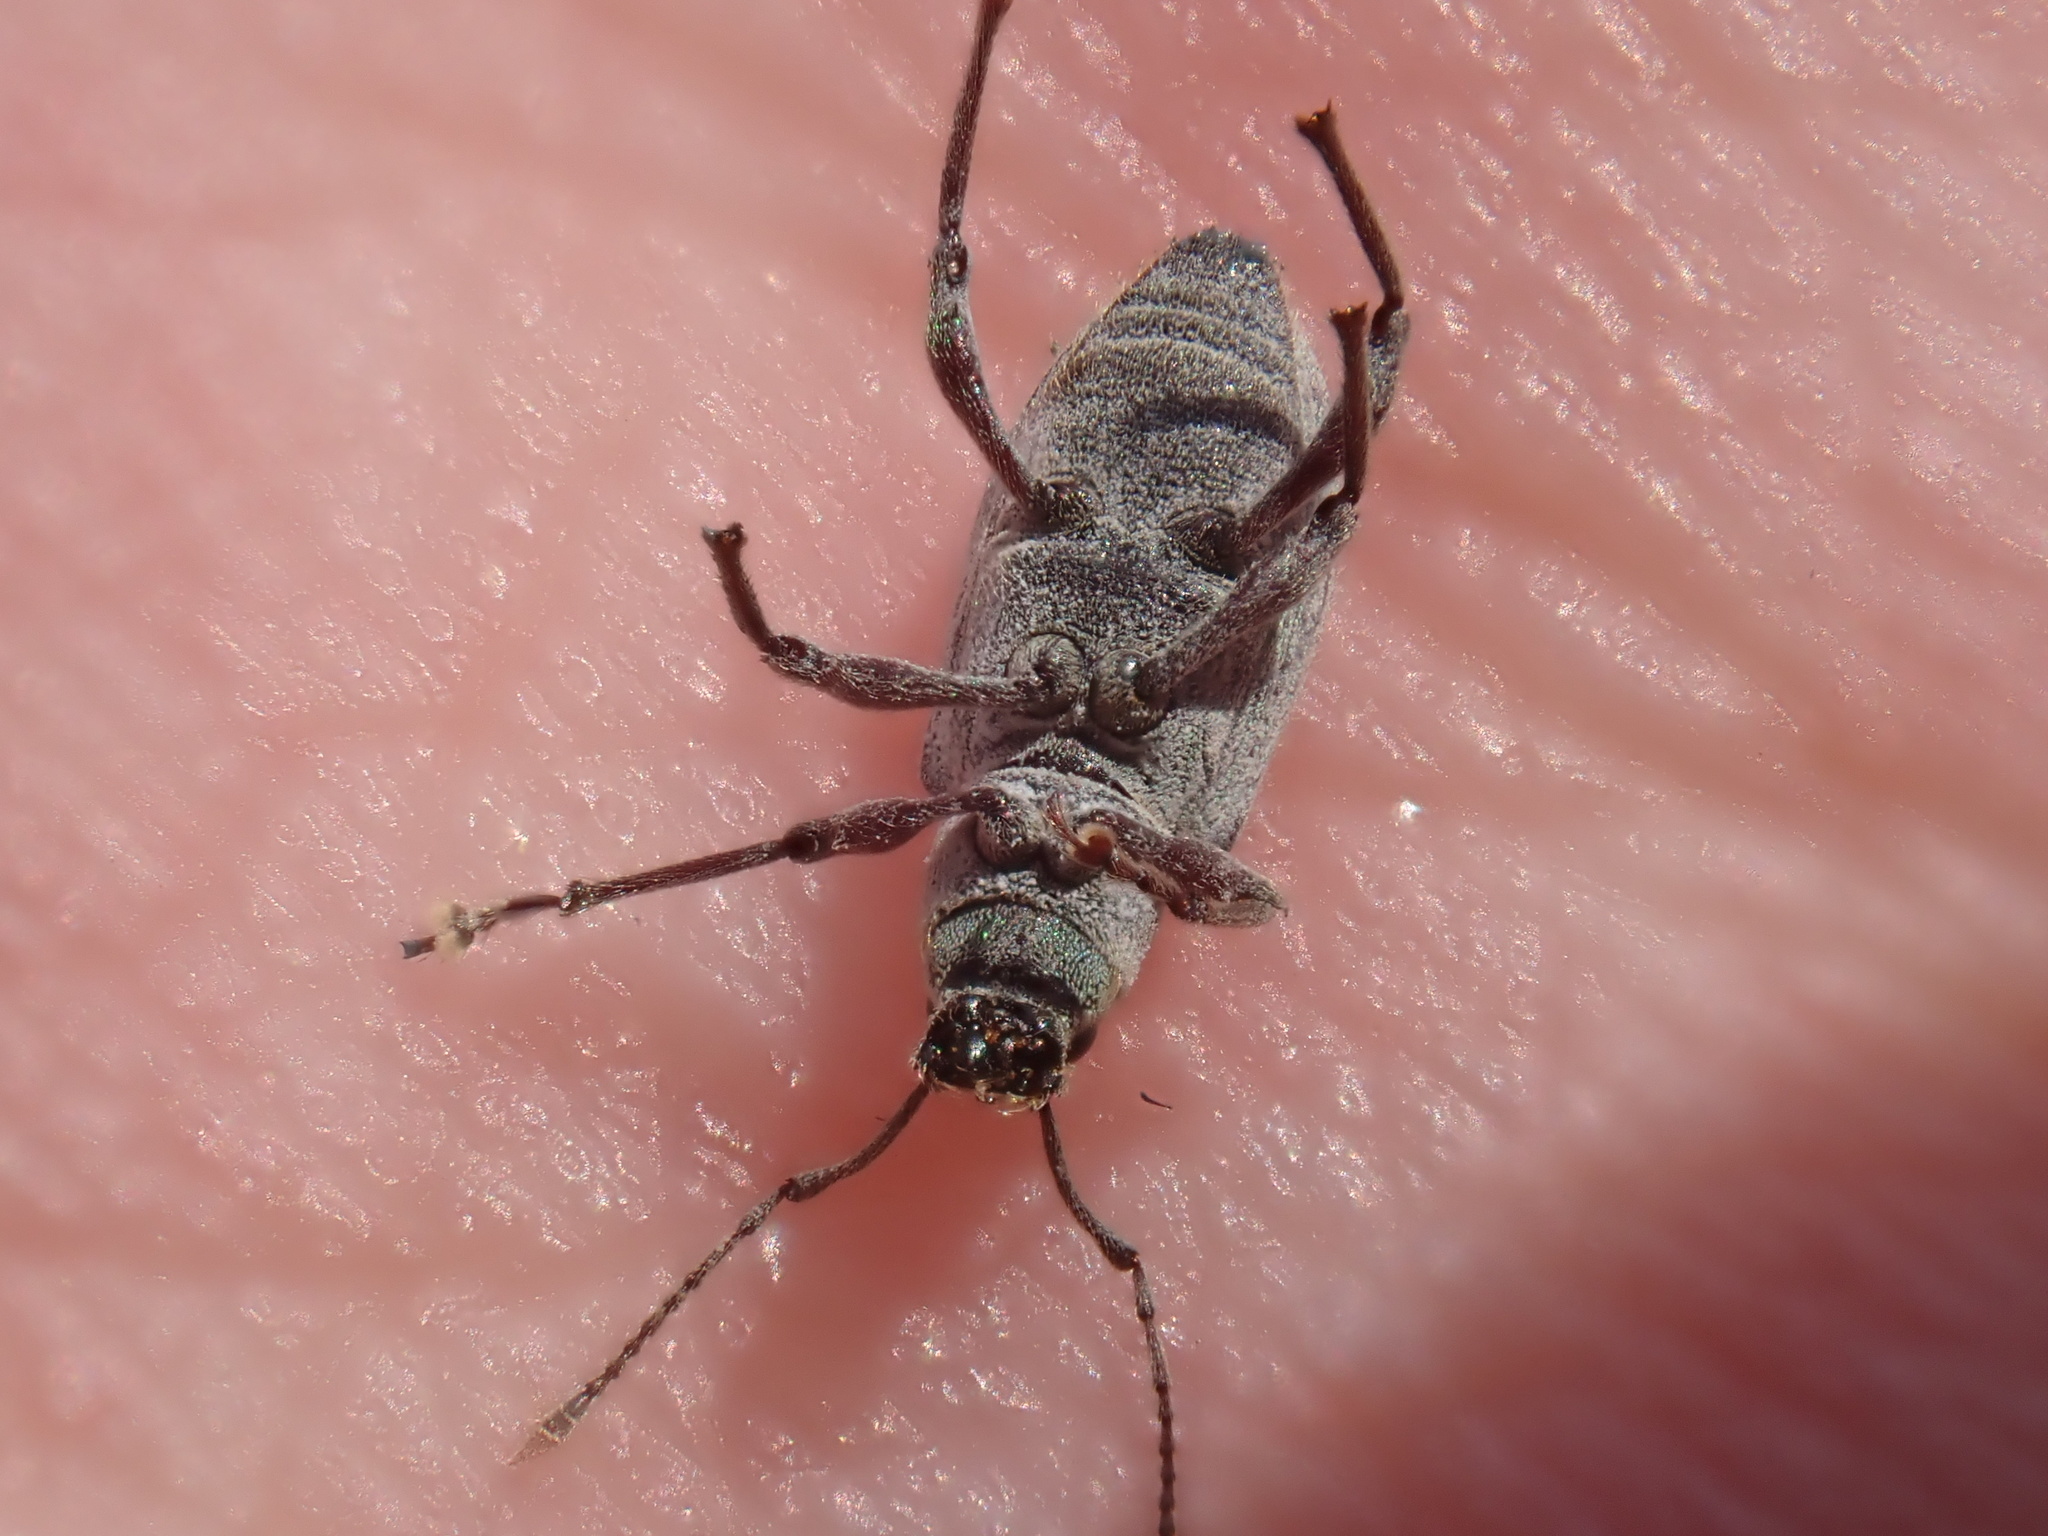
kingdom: Animalia
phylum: Arthropoda
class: Insecta
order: Coleoptera
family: Curculionidae
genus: Cyrtepistomus
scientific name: Cyrtepistomus castaneus
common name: Weevil
